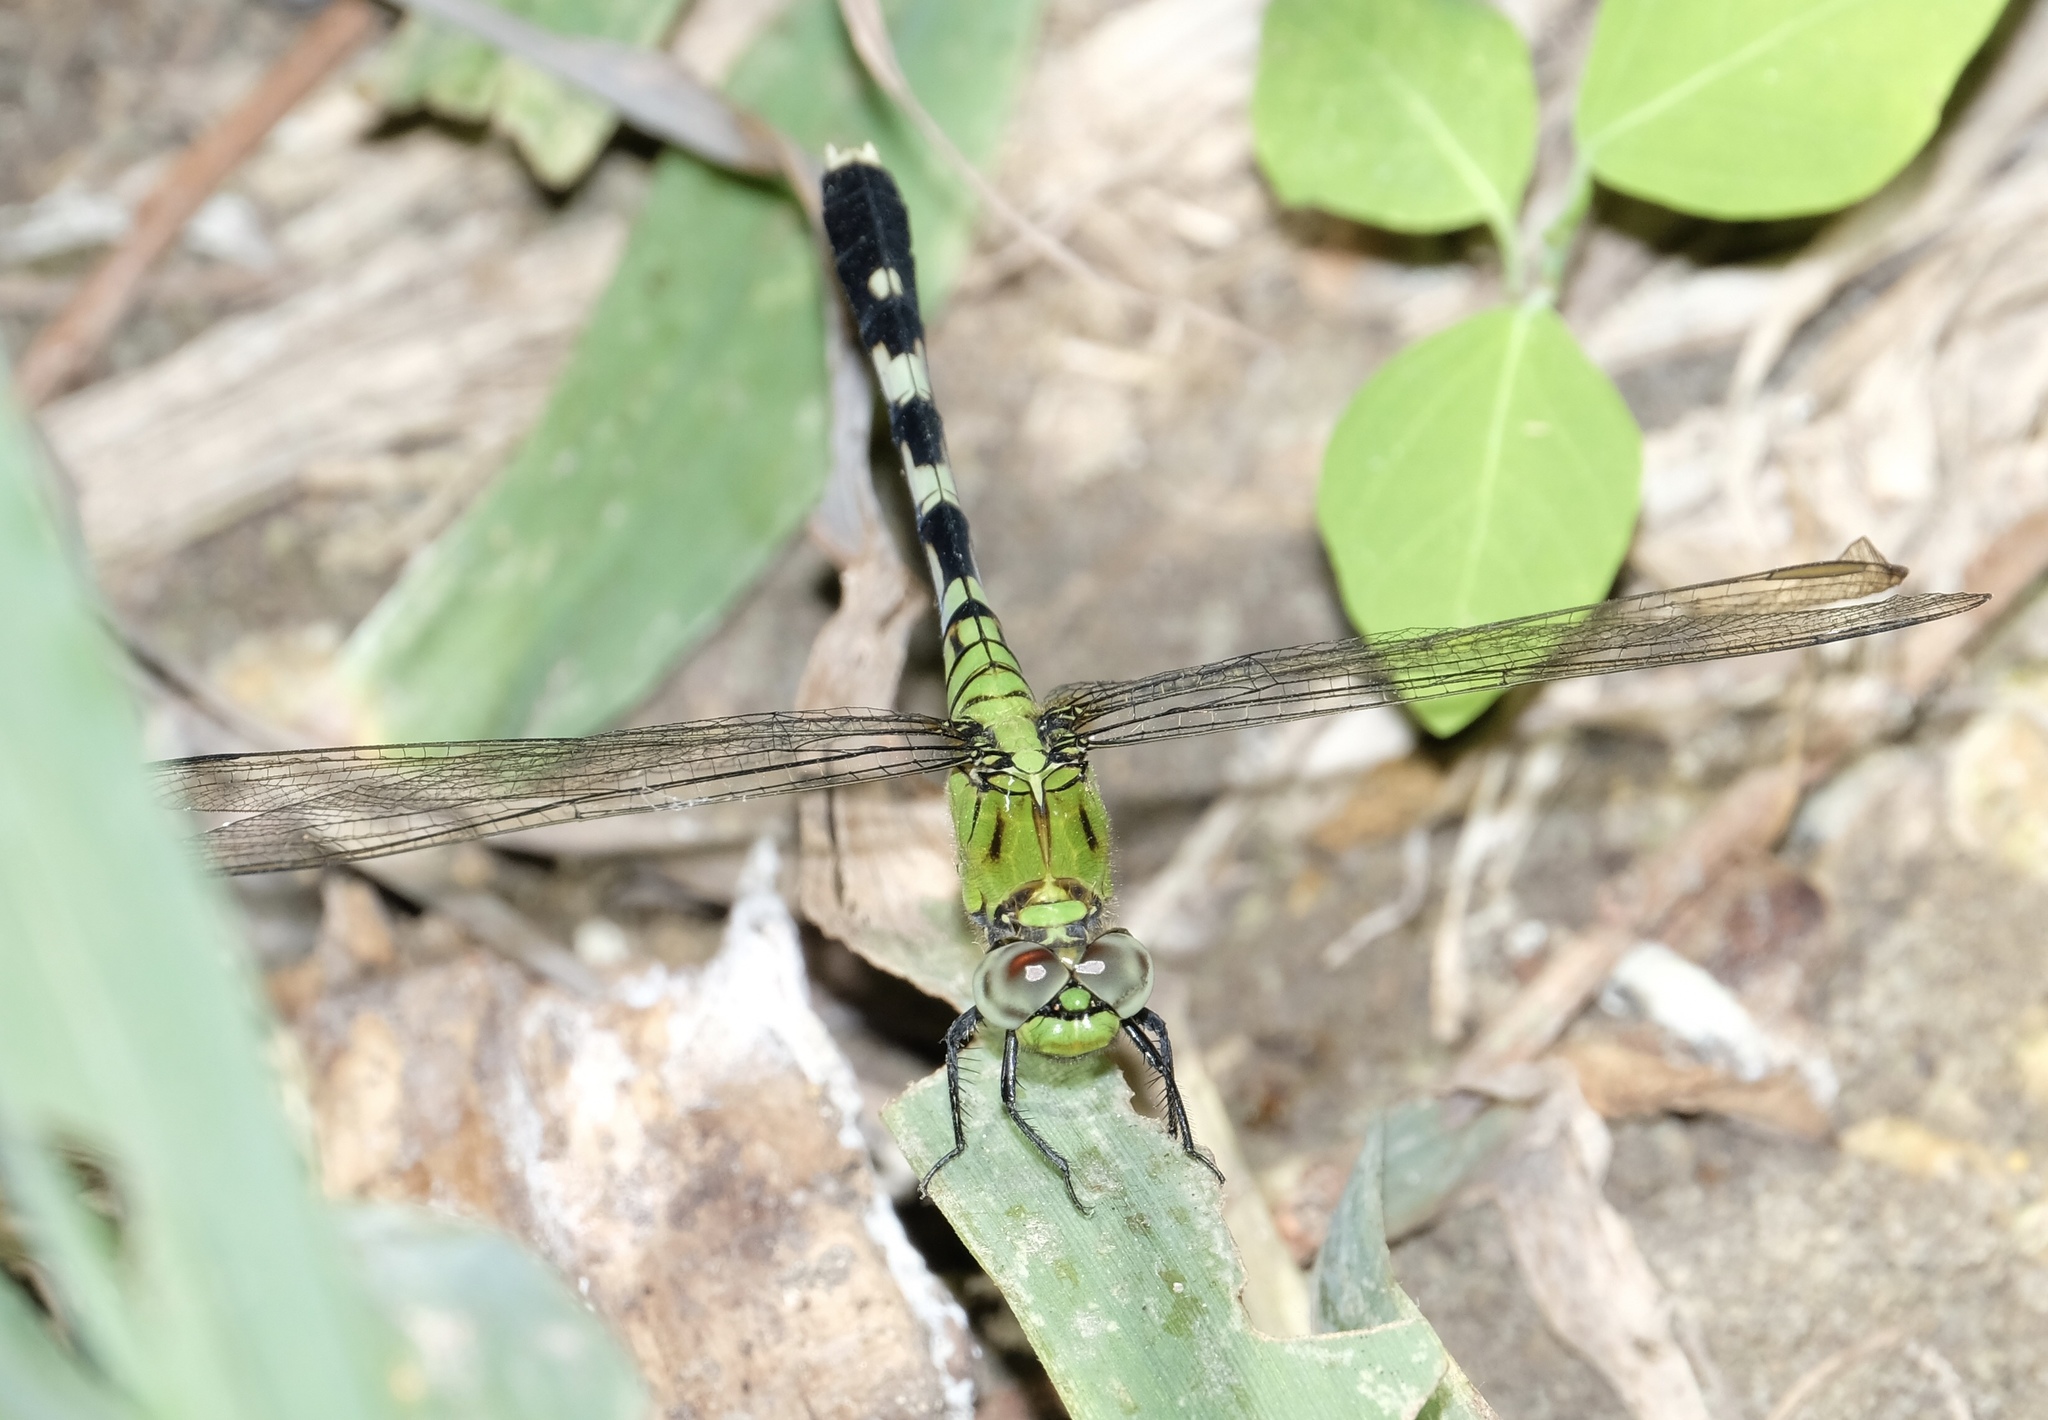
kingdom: Animalia
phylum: Arthropoda
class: Insecta
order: Odonata
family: Libellulidae
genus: Erythemis
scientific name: Erythemis simplicicollis
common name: Eastern pondhawk
